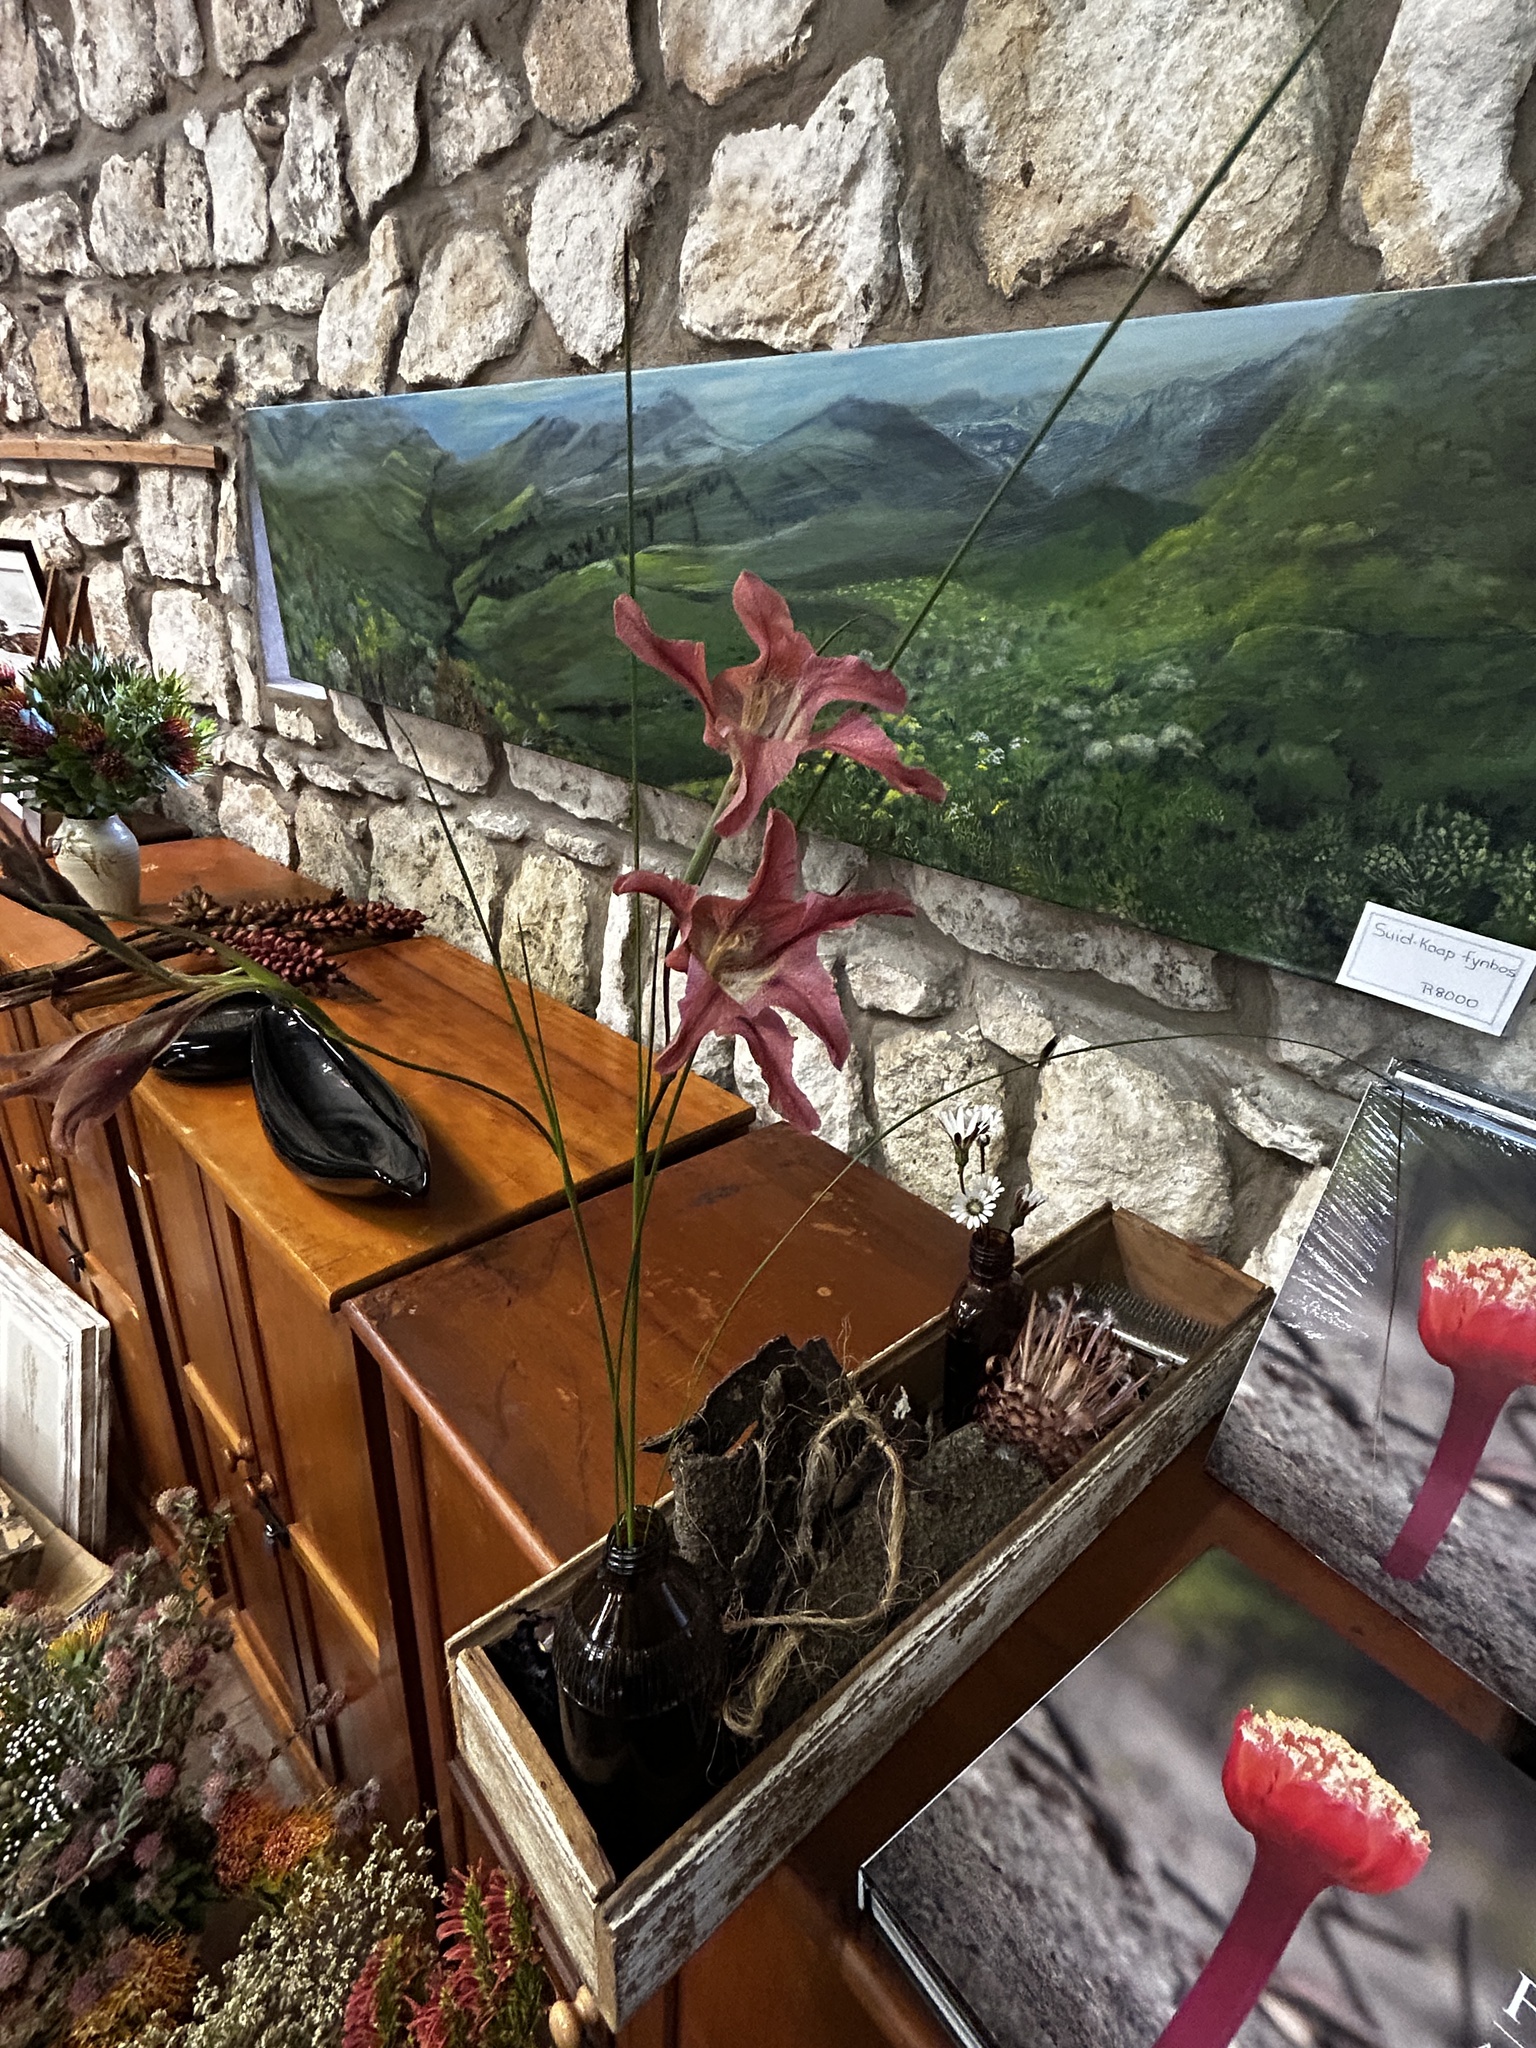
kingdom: Plantae
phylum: Tracheophyta
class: Liliopsida
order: Asparagales
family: Iridaceae
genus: Gladiolus
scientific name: Gladiolus liliaceus
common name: Large brown afrikaner
